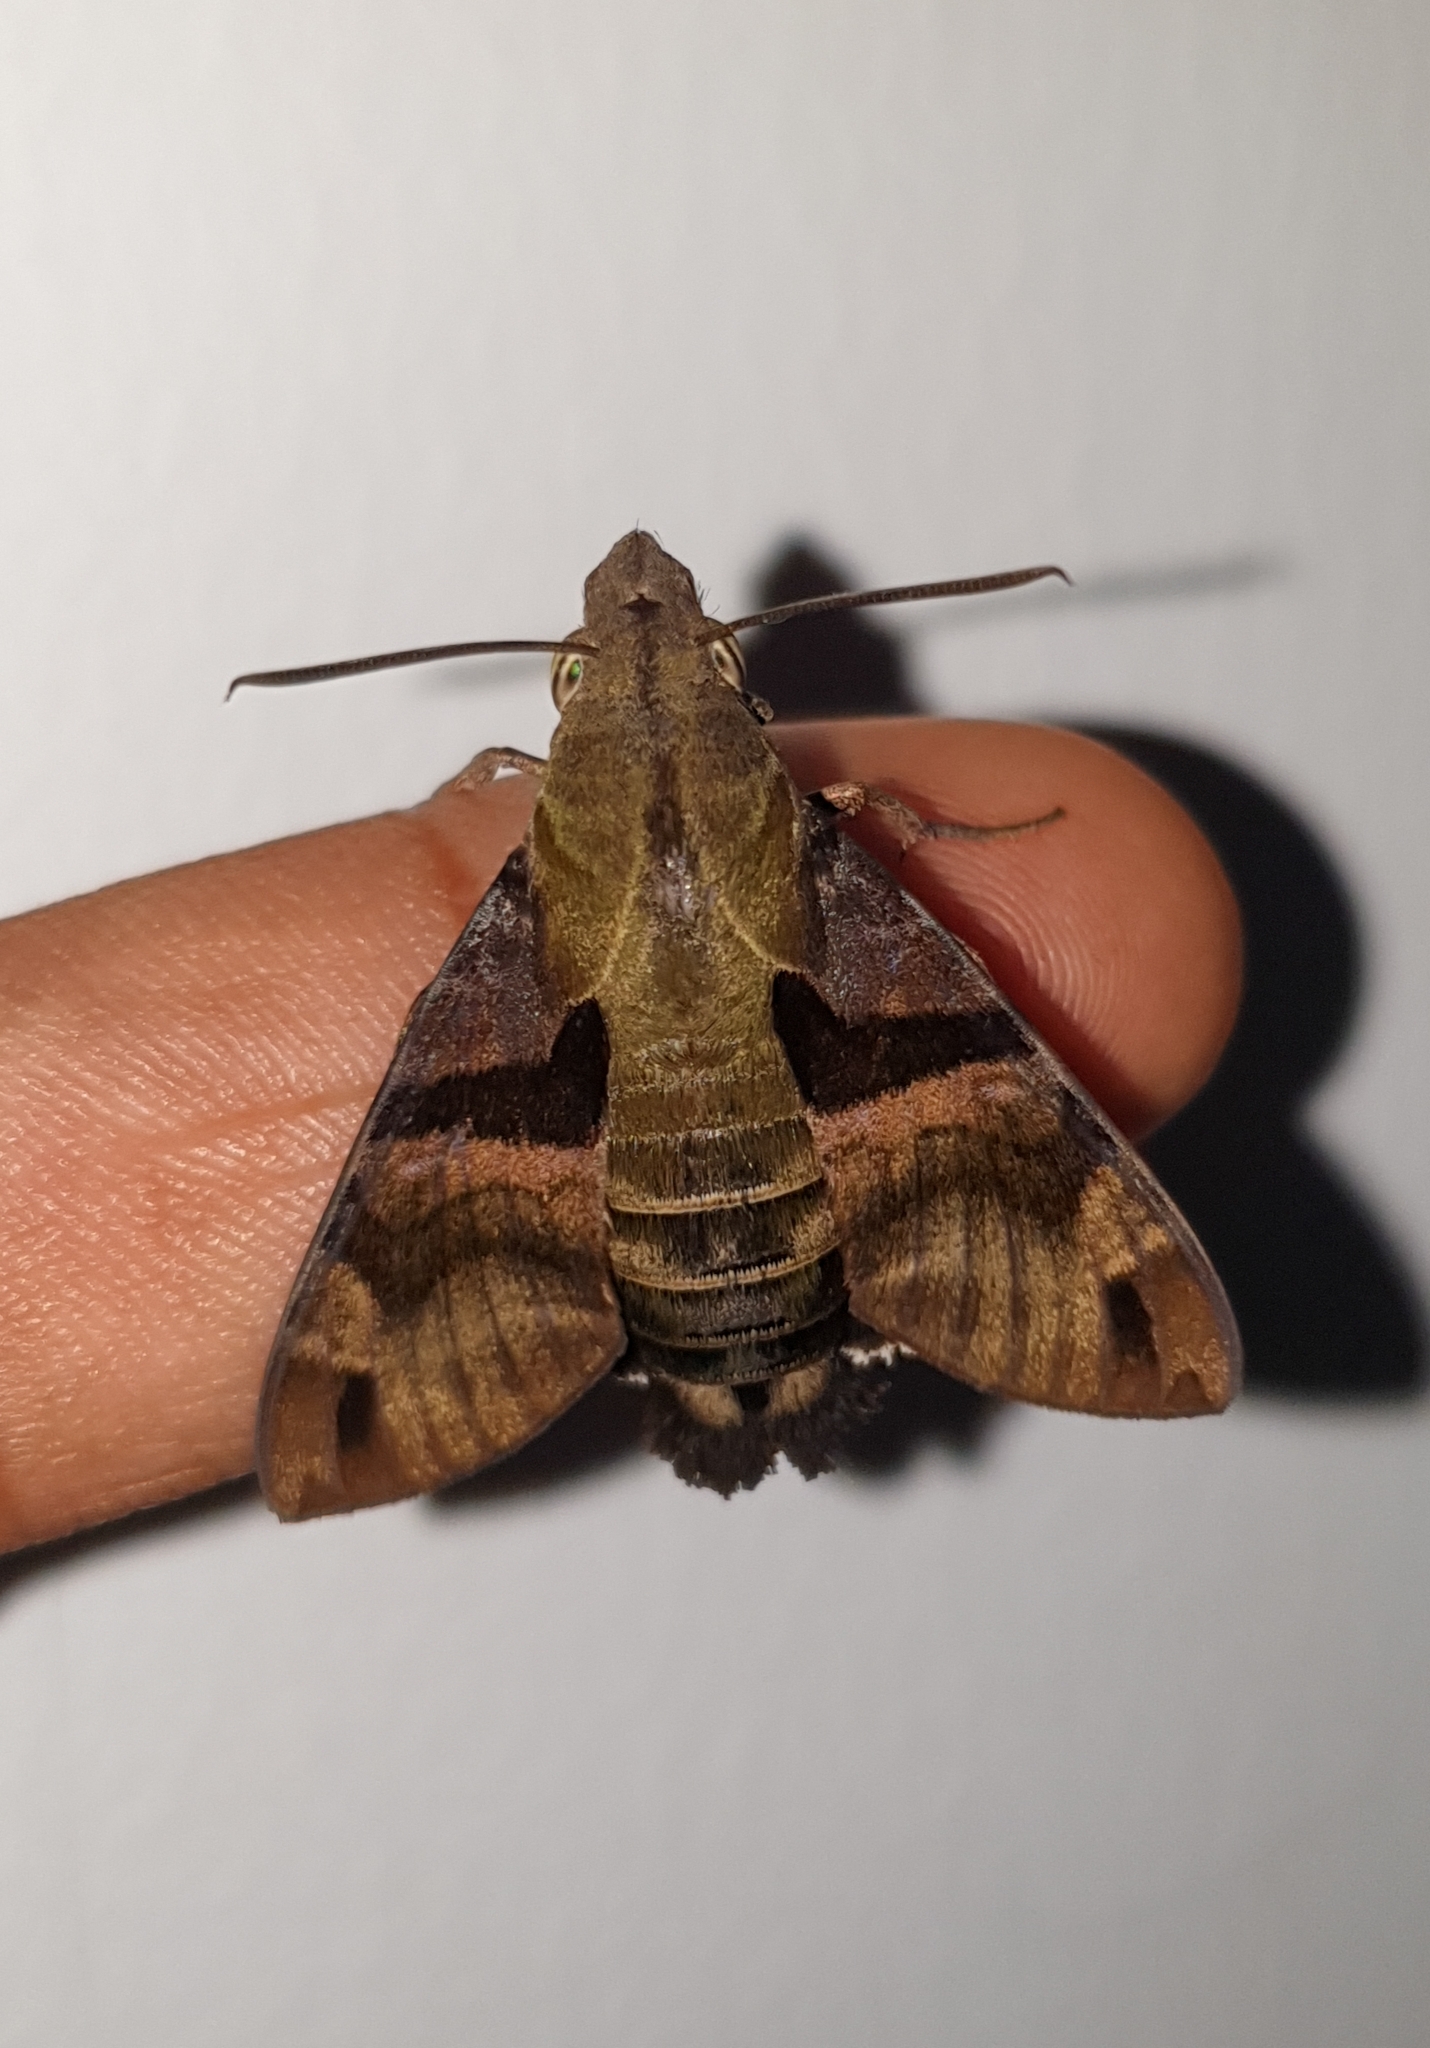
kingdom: Animalia
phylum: Arthropoda
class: Insecta
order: Lepidoptera
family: Sphingidae
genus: Macroglossum
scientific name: Macroglossum sitiene
